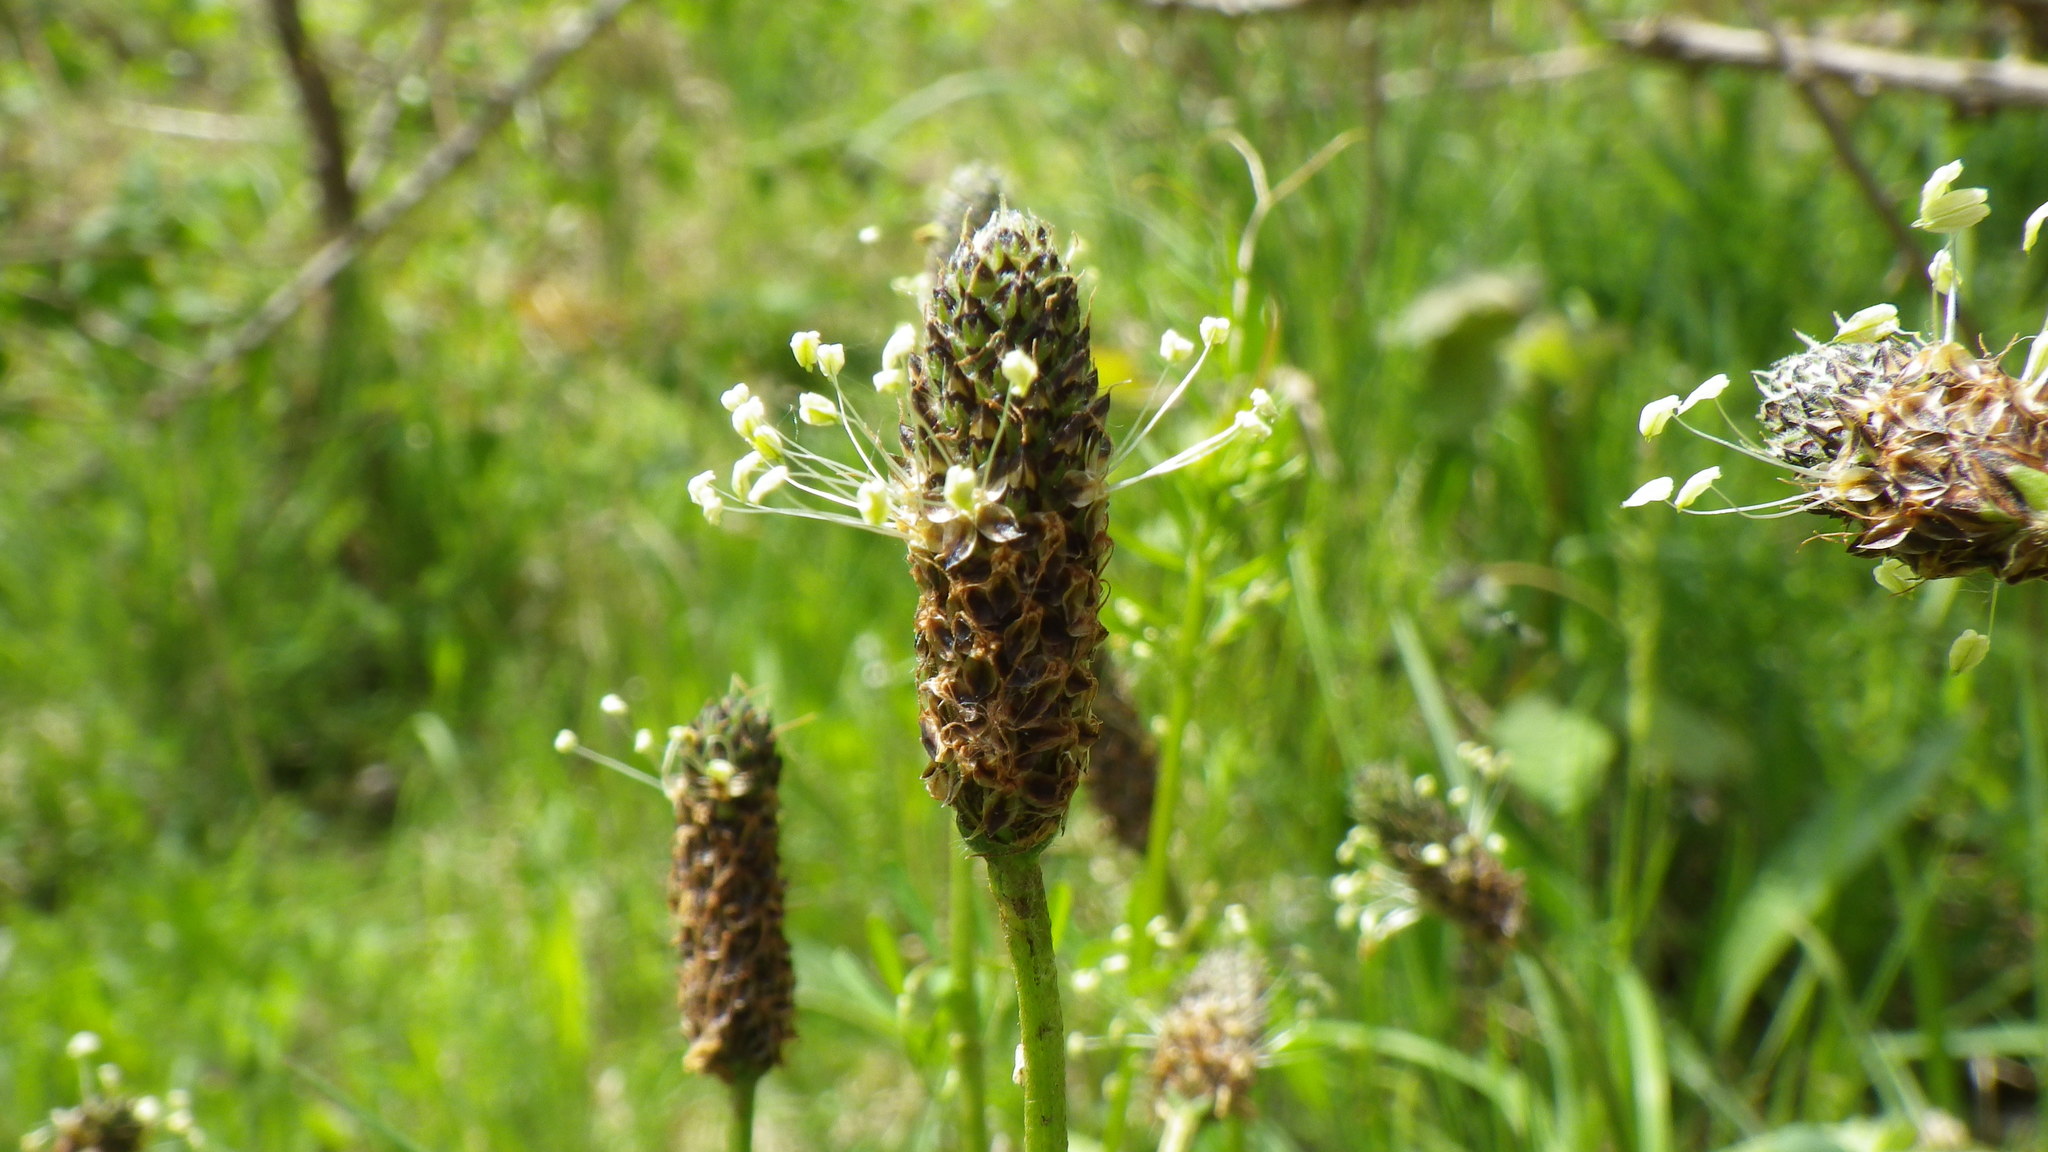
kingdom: Plantae
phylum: Tracheophyta
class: Magnoliopsida
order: Lamiales
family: Plantaginaceae
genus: Plantago
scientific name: Plantago lanceolata
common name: Ribwort plantain
